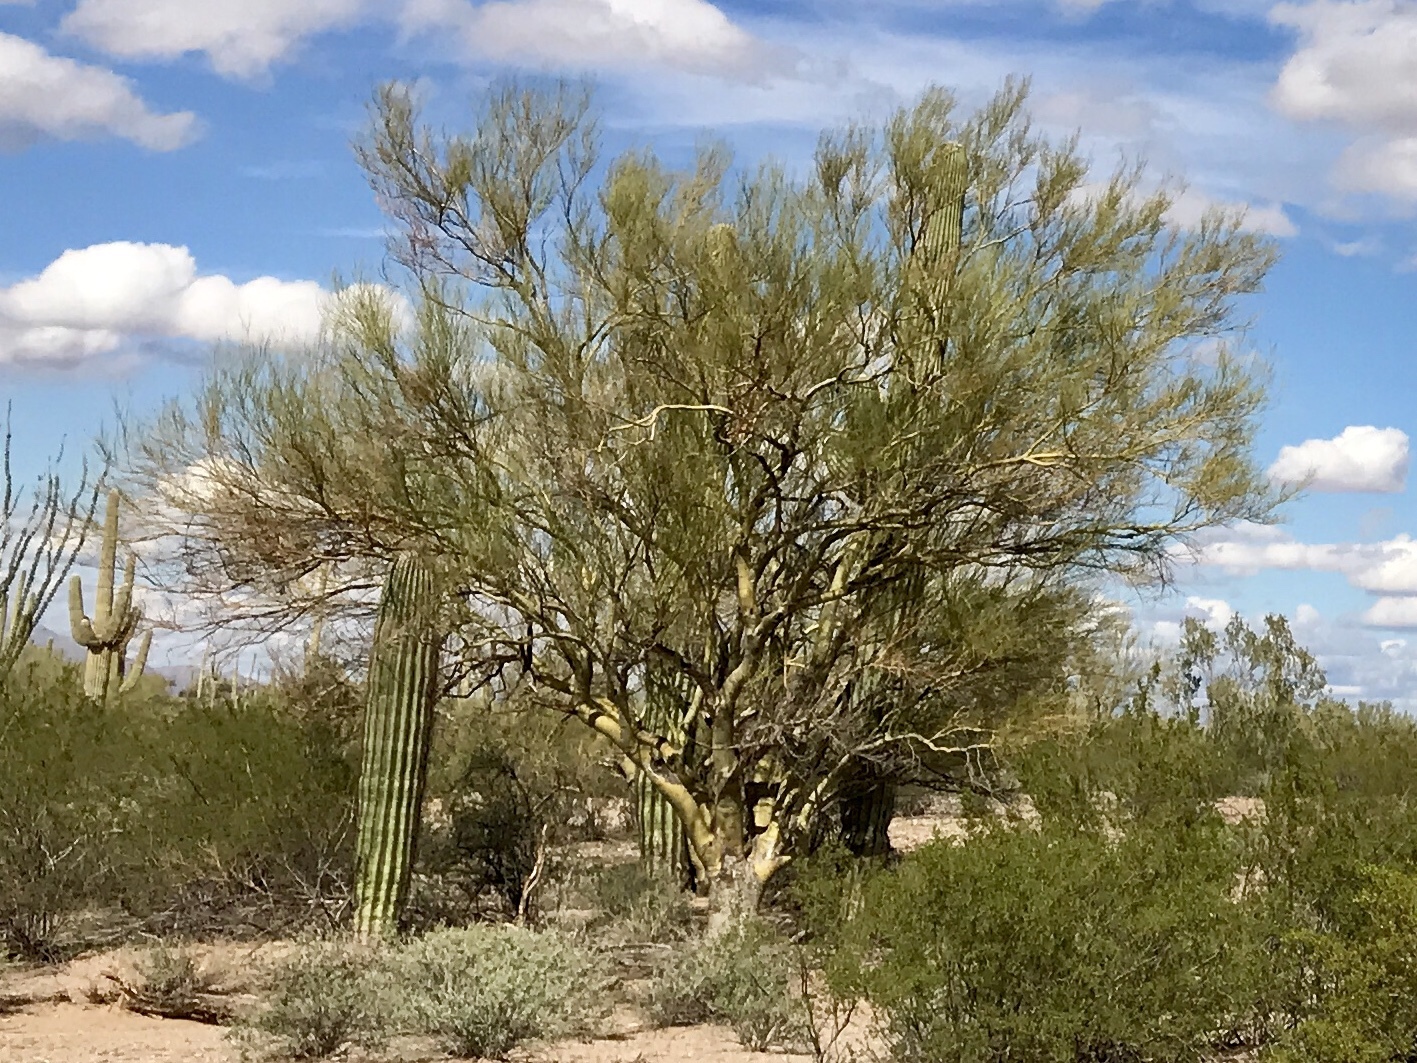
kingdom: Plantae
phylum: Tracheophyta
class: Magnoliopsida
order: Fabales
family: Fabaceae
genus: Parkinsonia
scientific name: Parkinsonia microphylla
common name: Yellow paloverde
